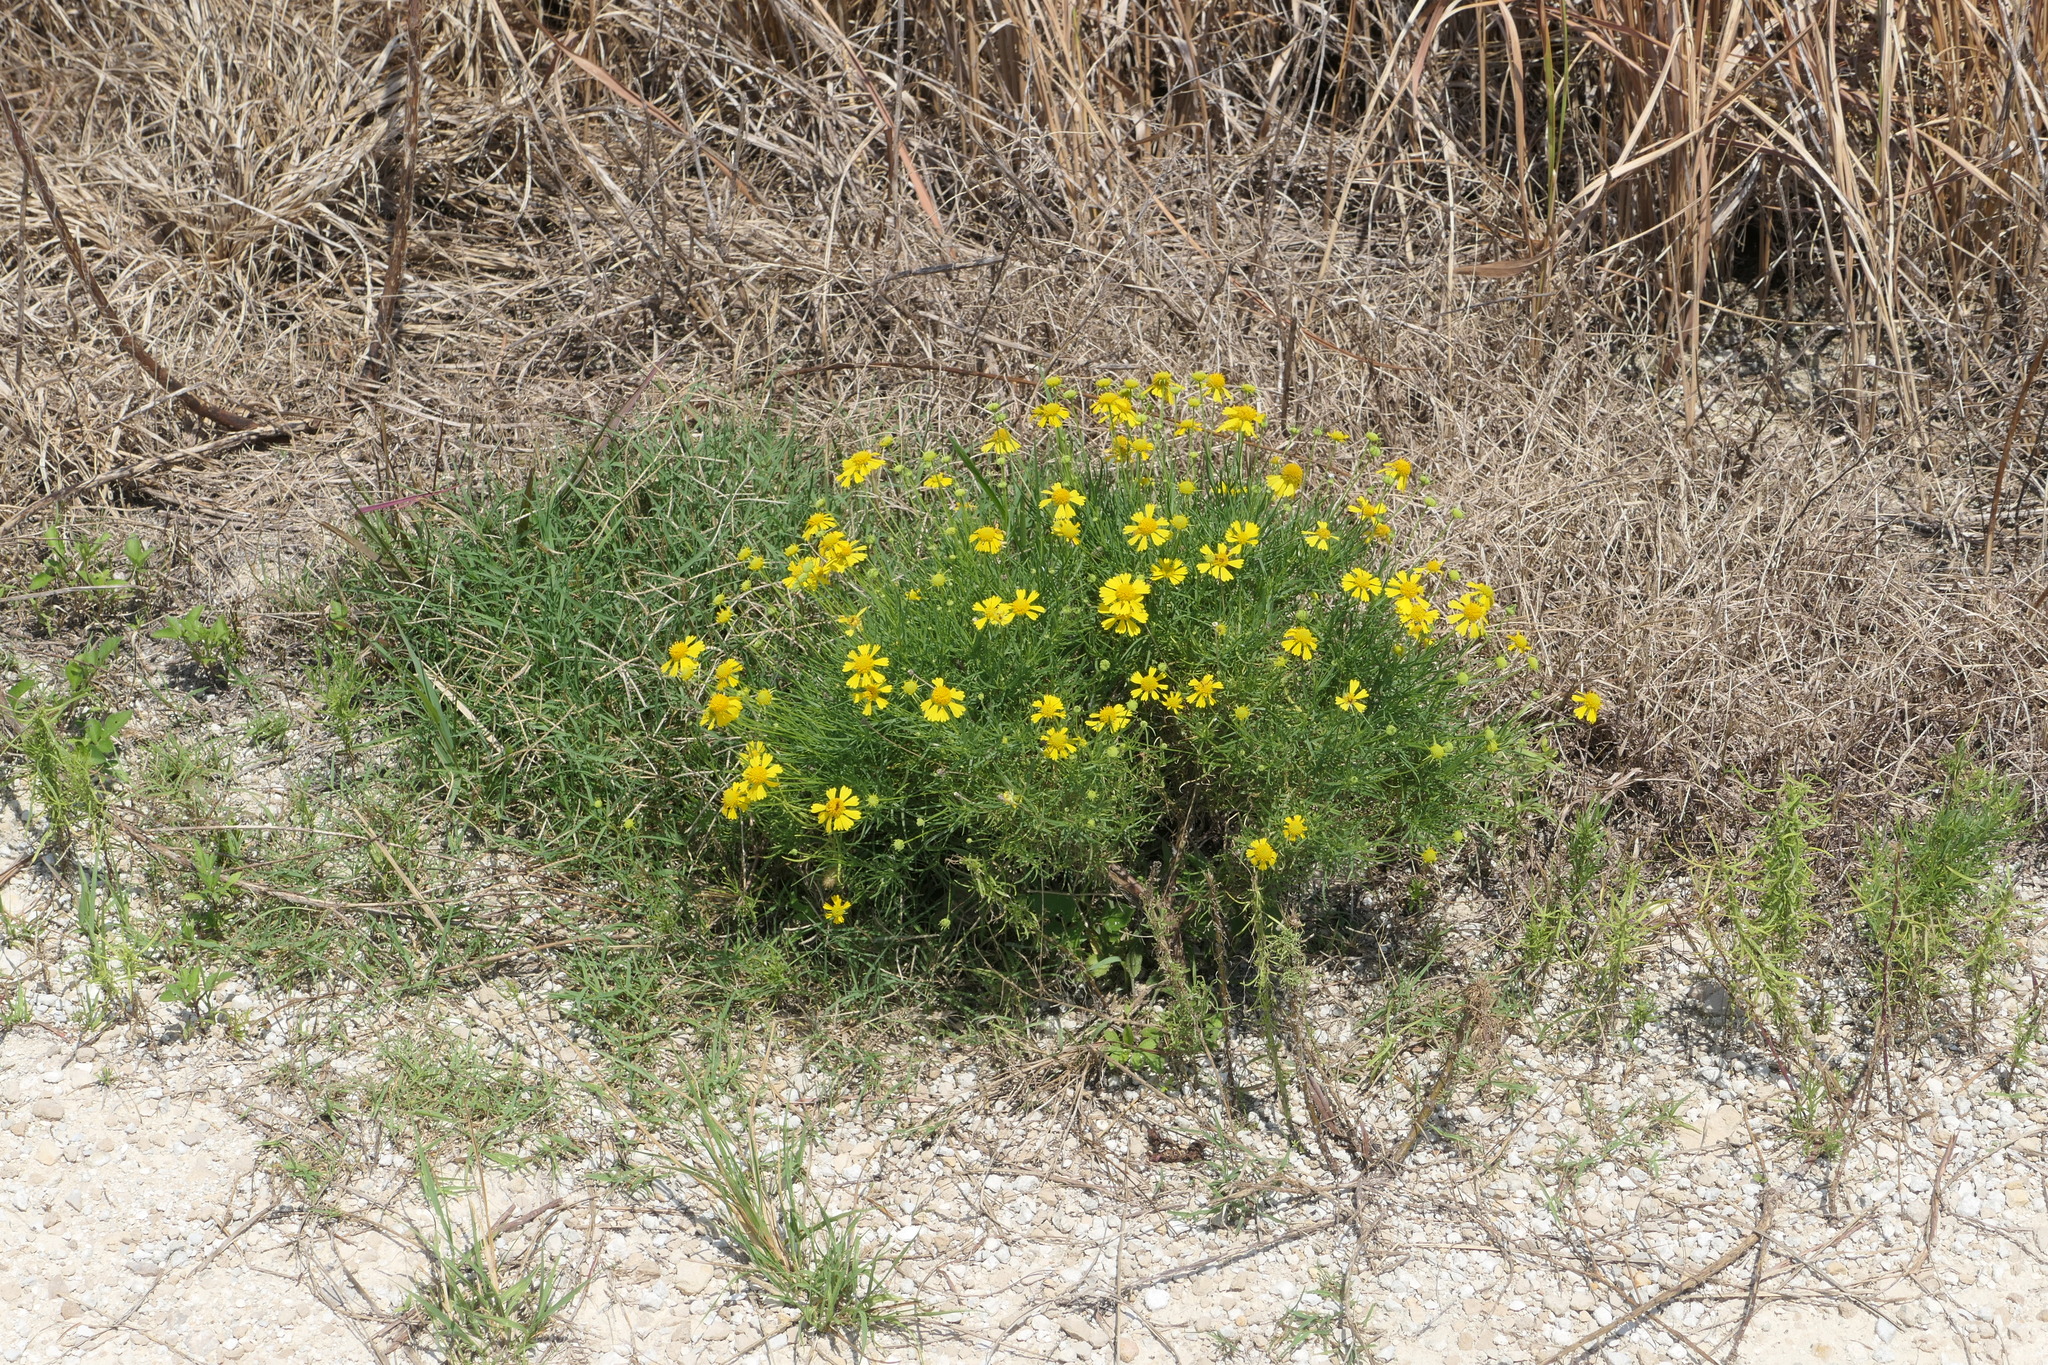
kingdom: Plantae
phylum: Tracheophyta
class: Magnoliopsida
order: Asterales
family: Asteraceae
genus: Helenium
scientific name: Helenium amarum
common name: Bitter sneezeweed
